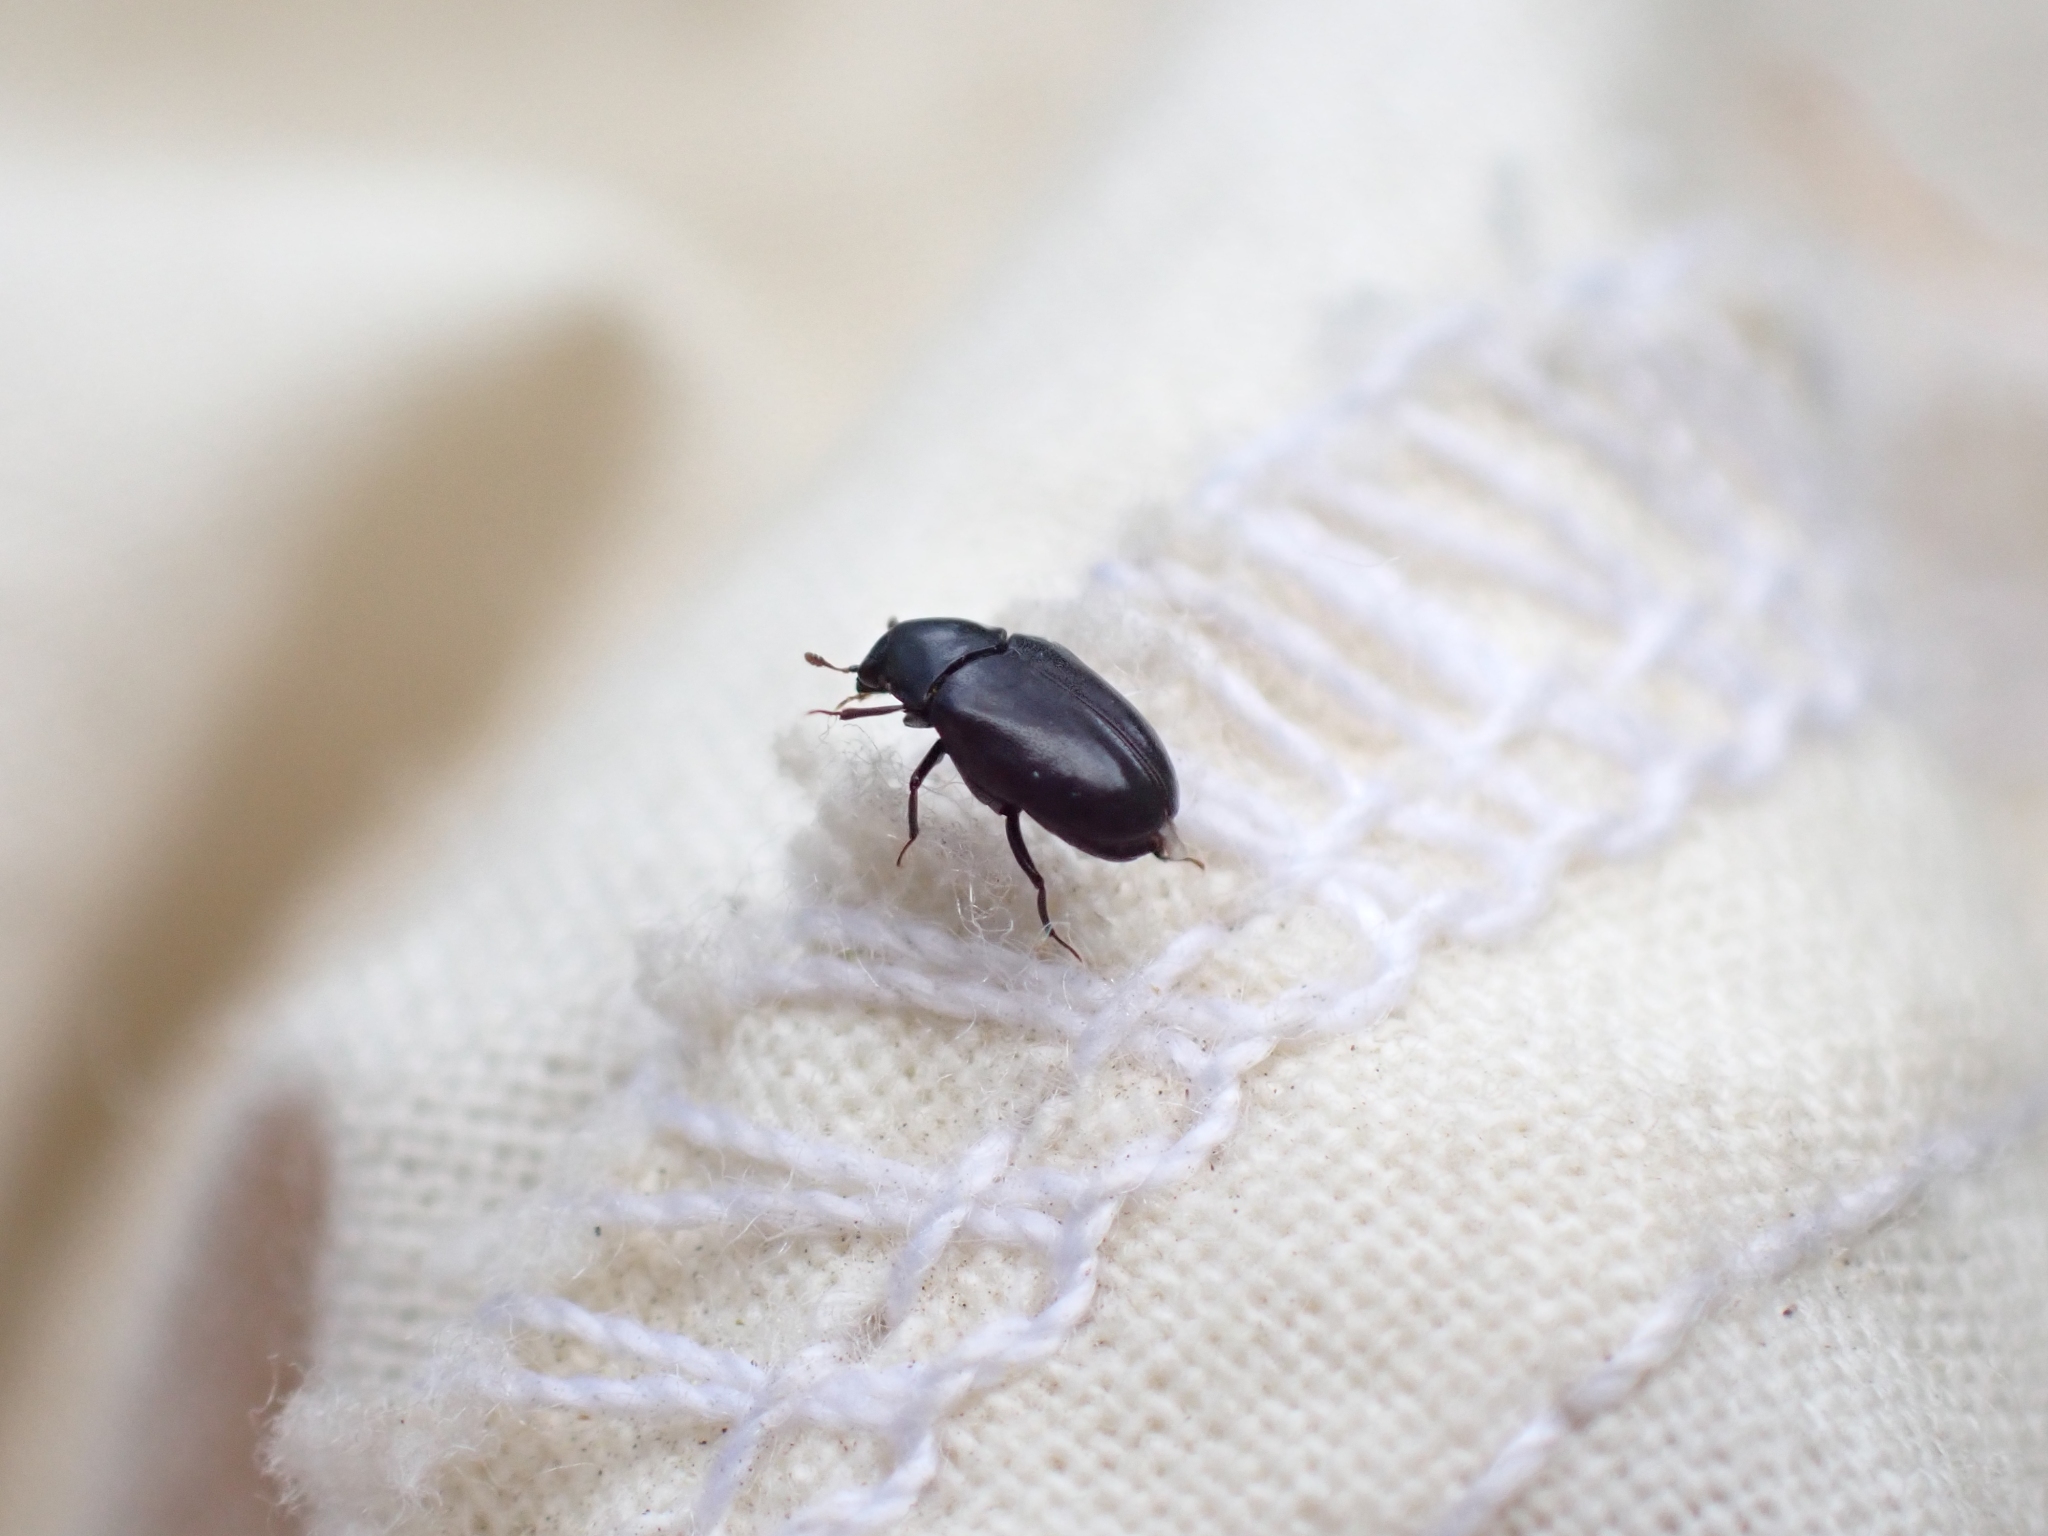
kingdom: Animalia
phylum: Arthropoda
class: Insecta
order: Coleoptera
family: Dermestidae
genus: Orphilus
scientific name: Orphilus subnitidus
